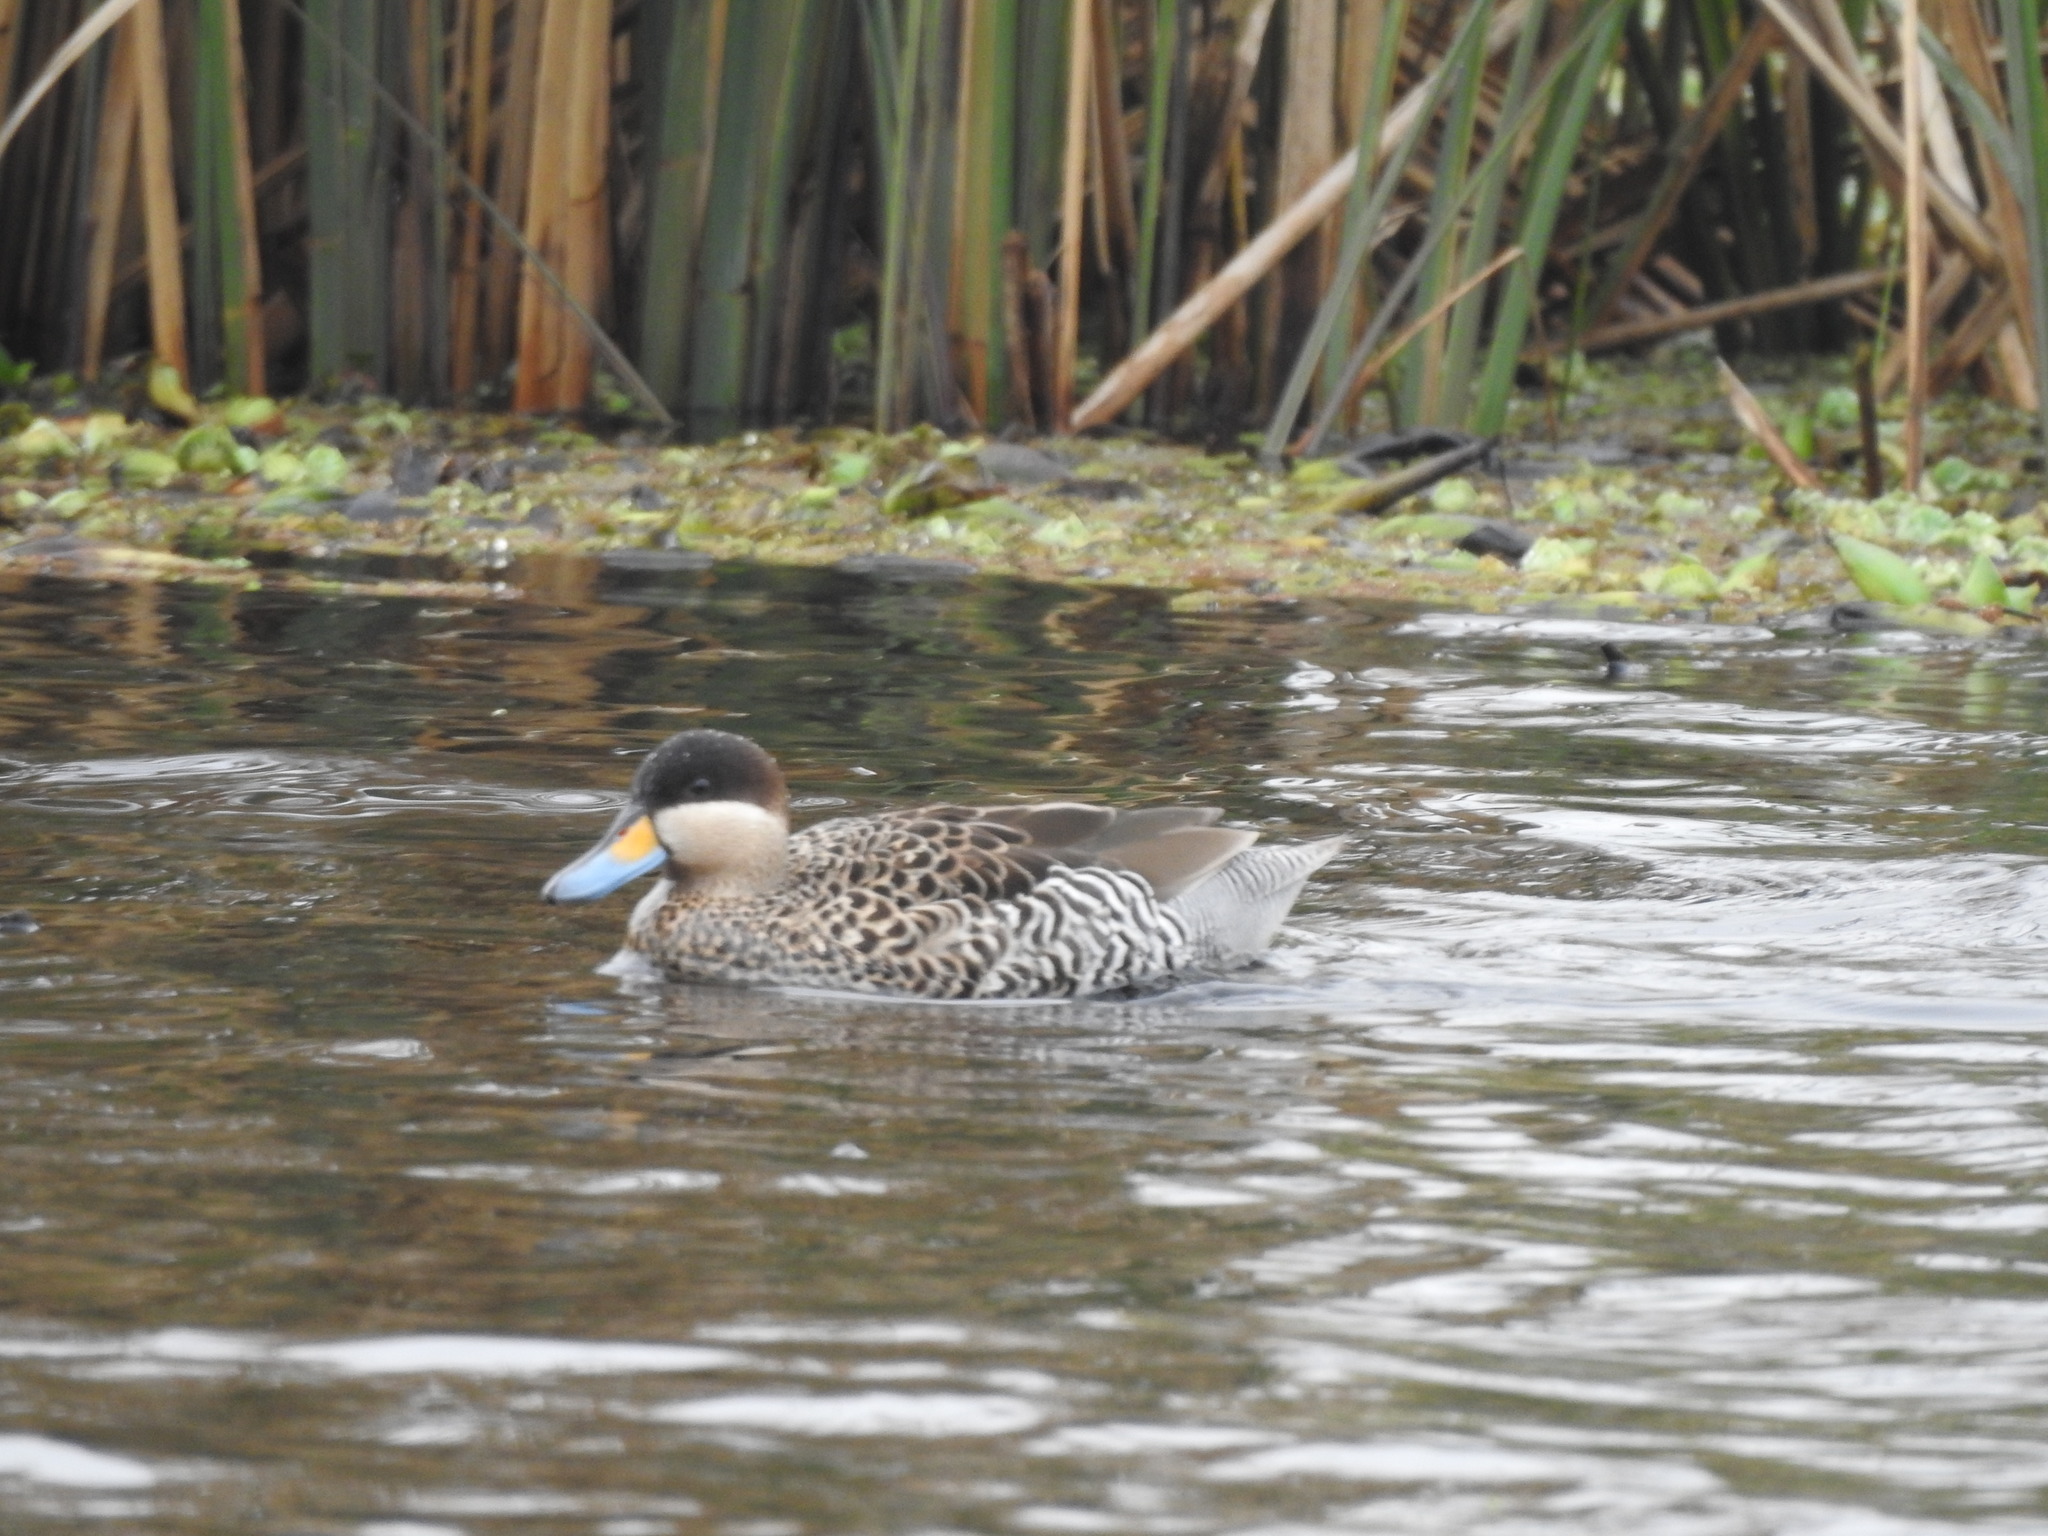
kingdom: Animalia
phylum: Chordata
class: Aves
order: Anseriformes
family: Anatidae
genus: Spatula
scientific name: Spatula versicolor
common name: Silver teal
